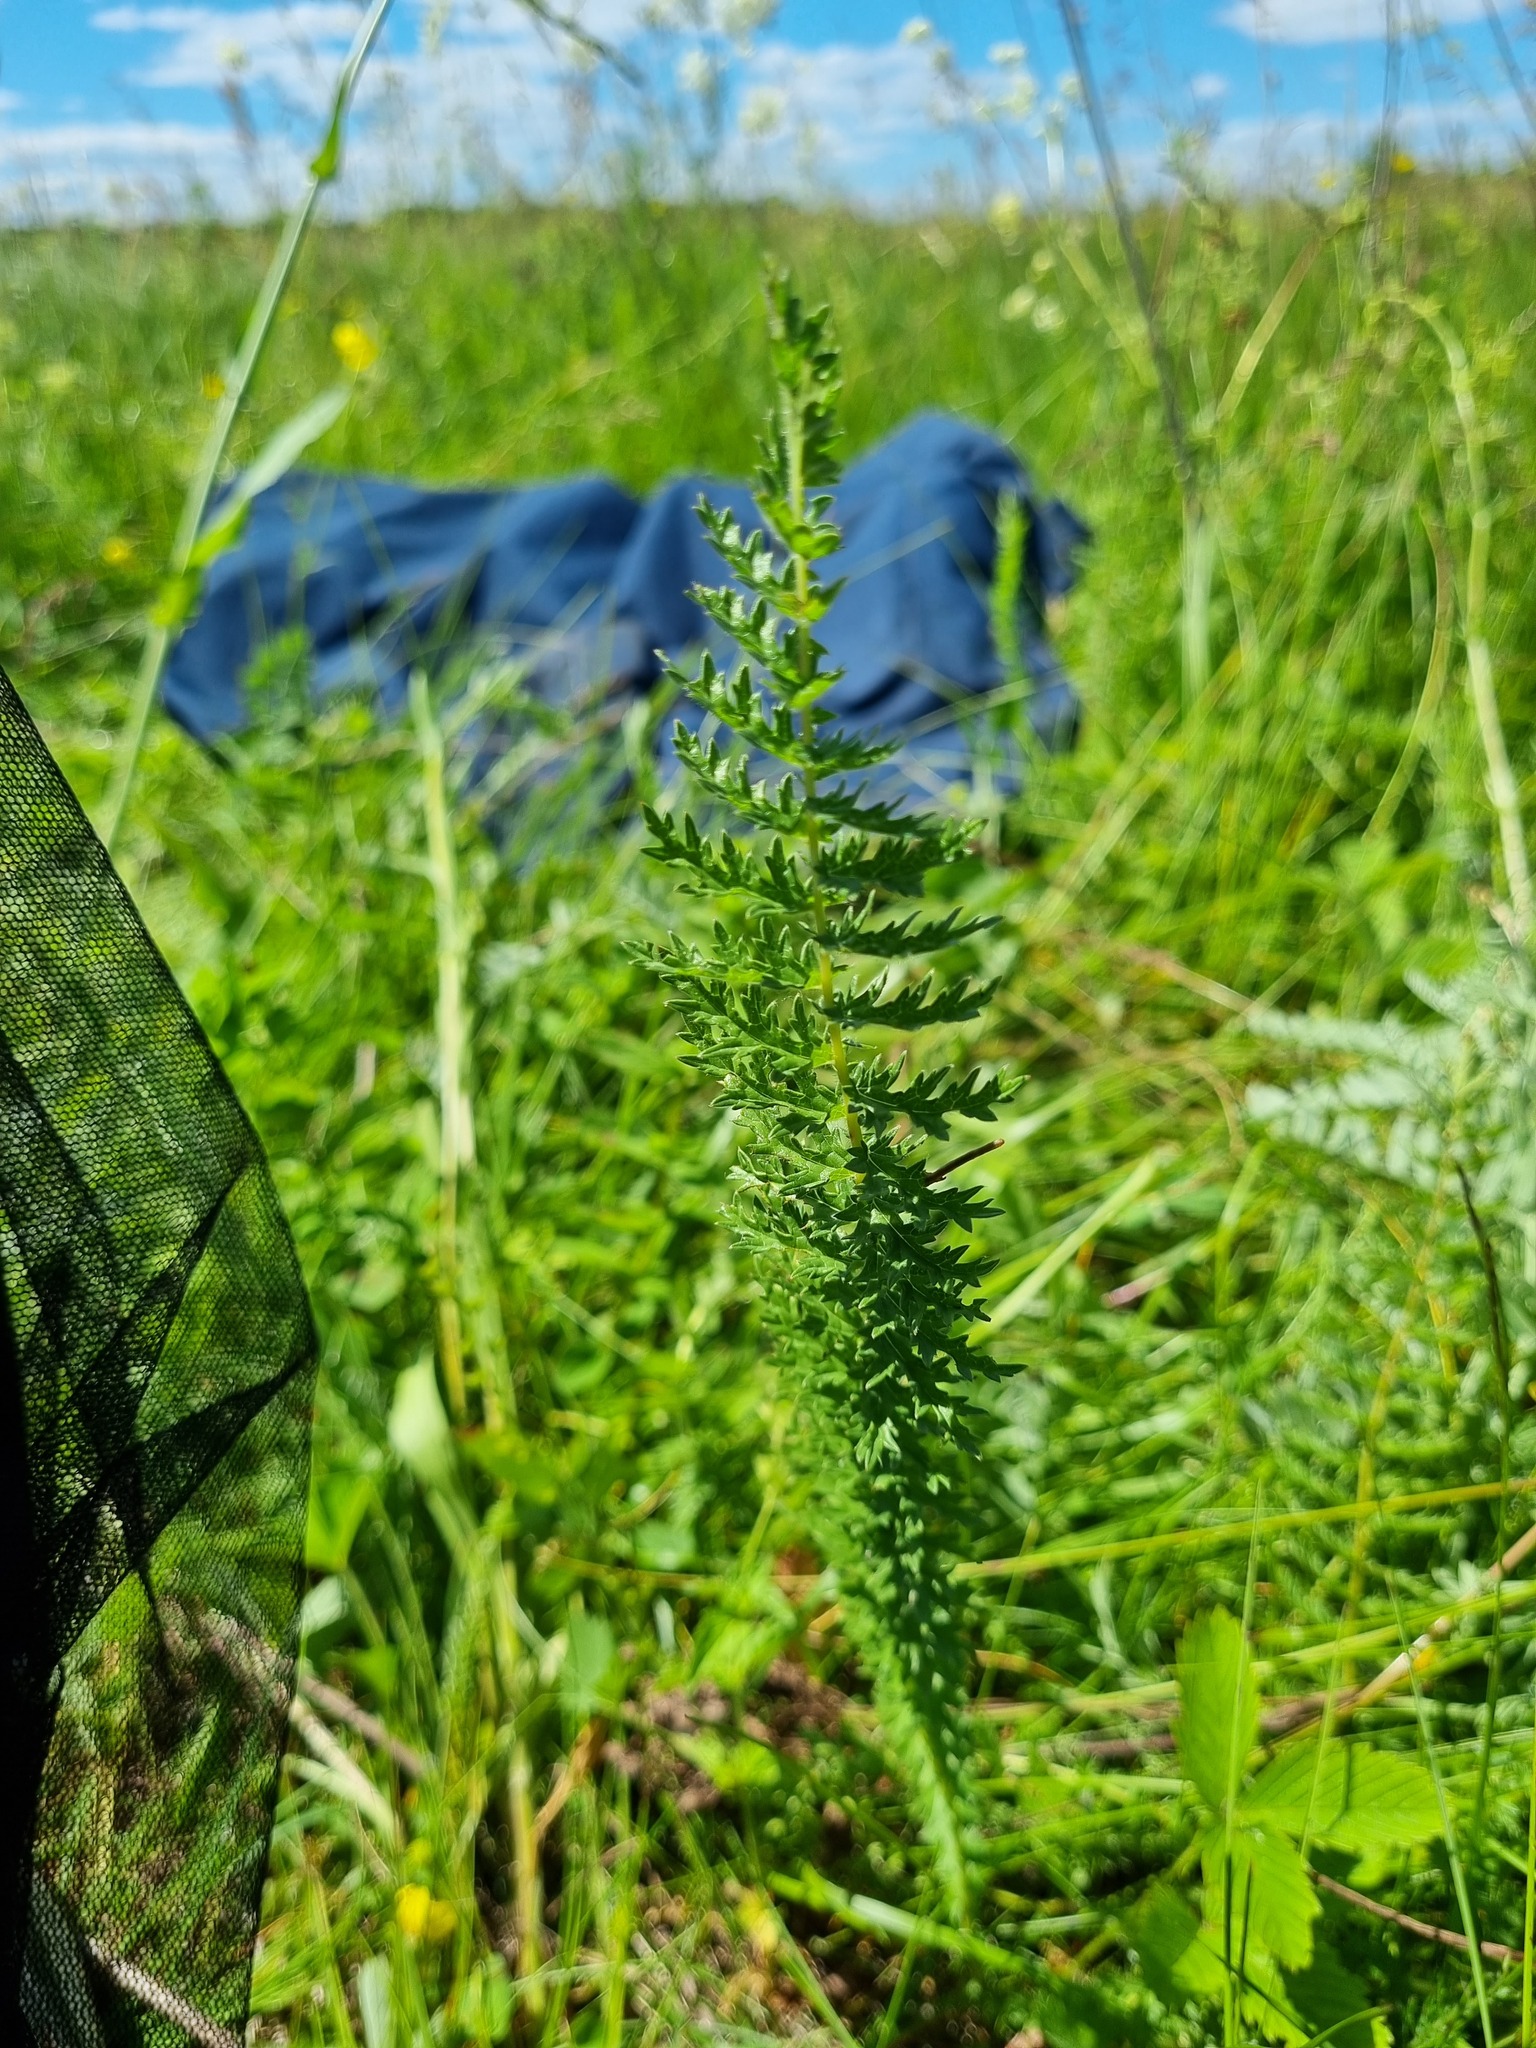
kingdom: Plantae
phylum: Tracheophyta
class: Magnoliopsida
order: Rosales
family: Rosaceae
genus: Filipendula
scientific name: Filipendula vulgaris
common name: Dropwort
